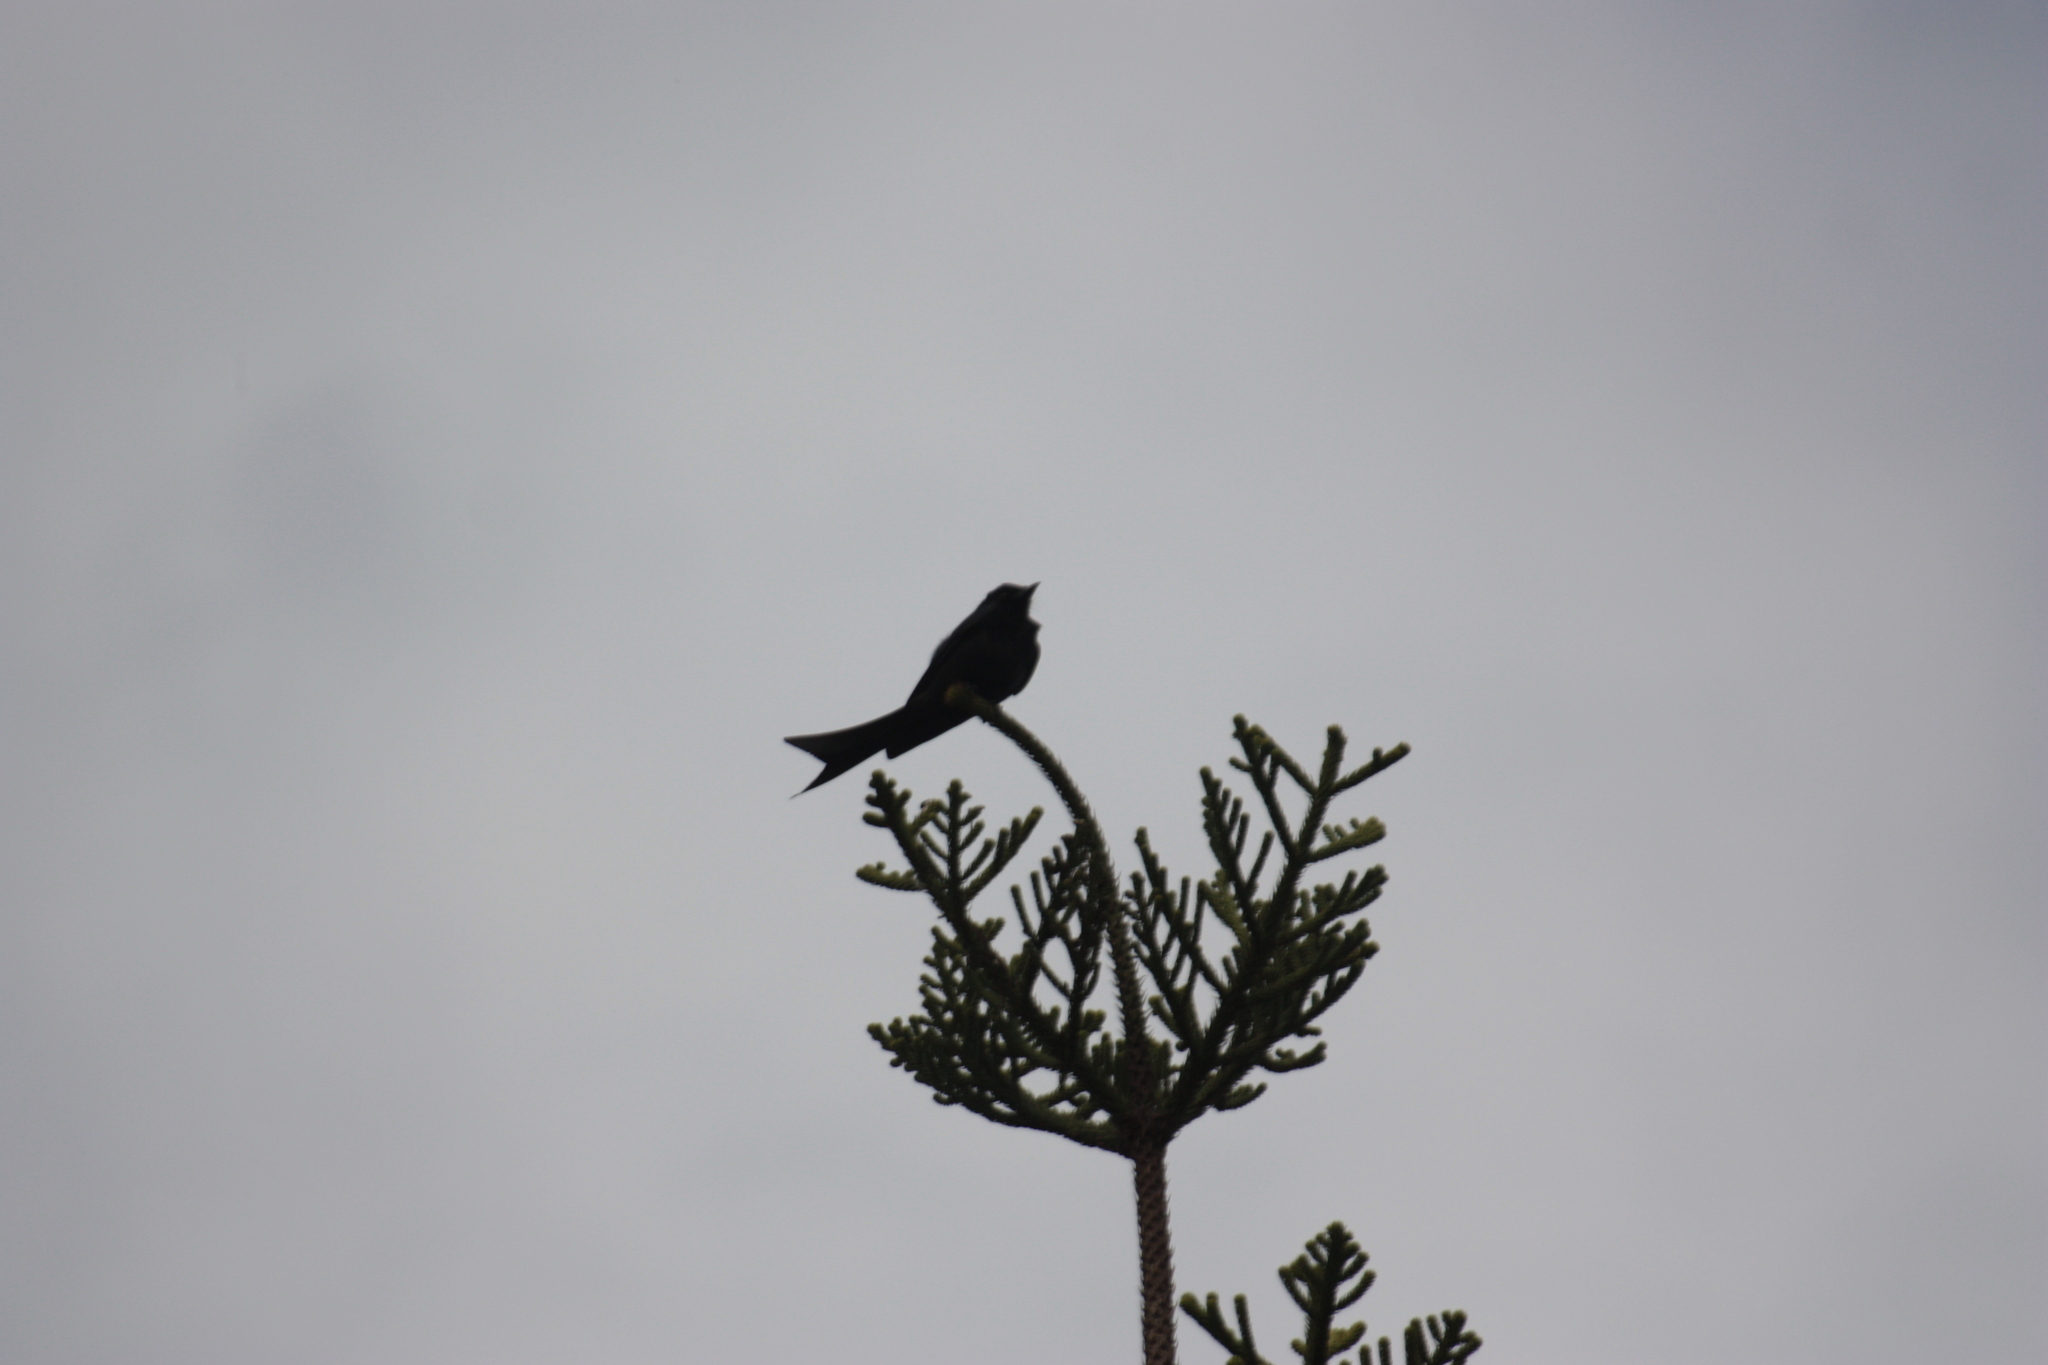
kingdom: Animalia
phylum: Chordata
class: Aves
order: Passeriformes
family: Dicruridae
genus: Dicrurus
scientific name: Dicrurus macrocercus
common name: Black drongo
